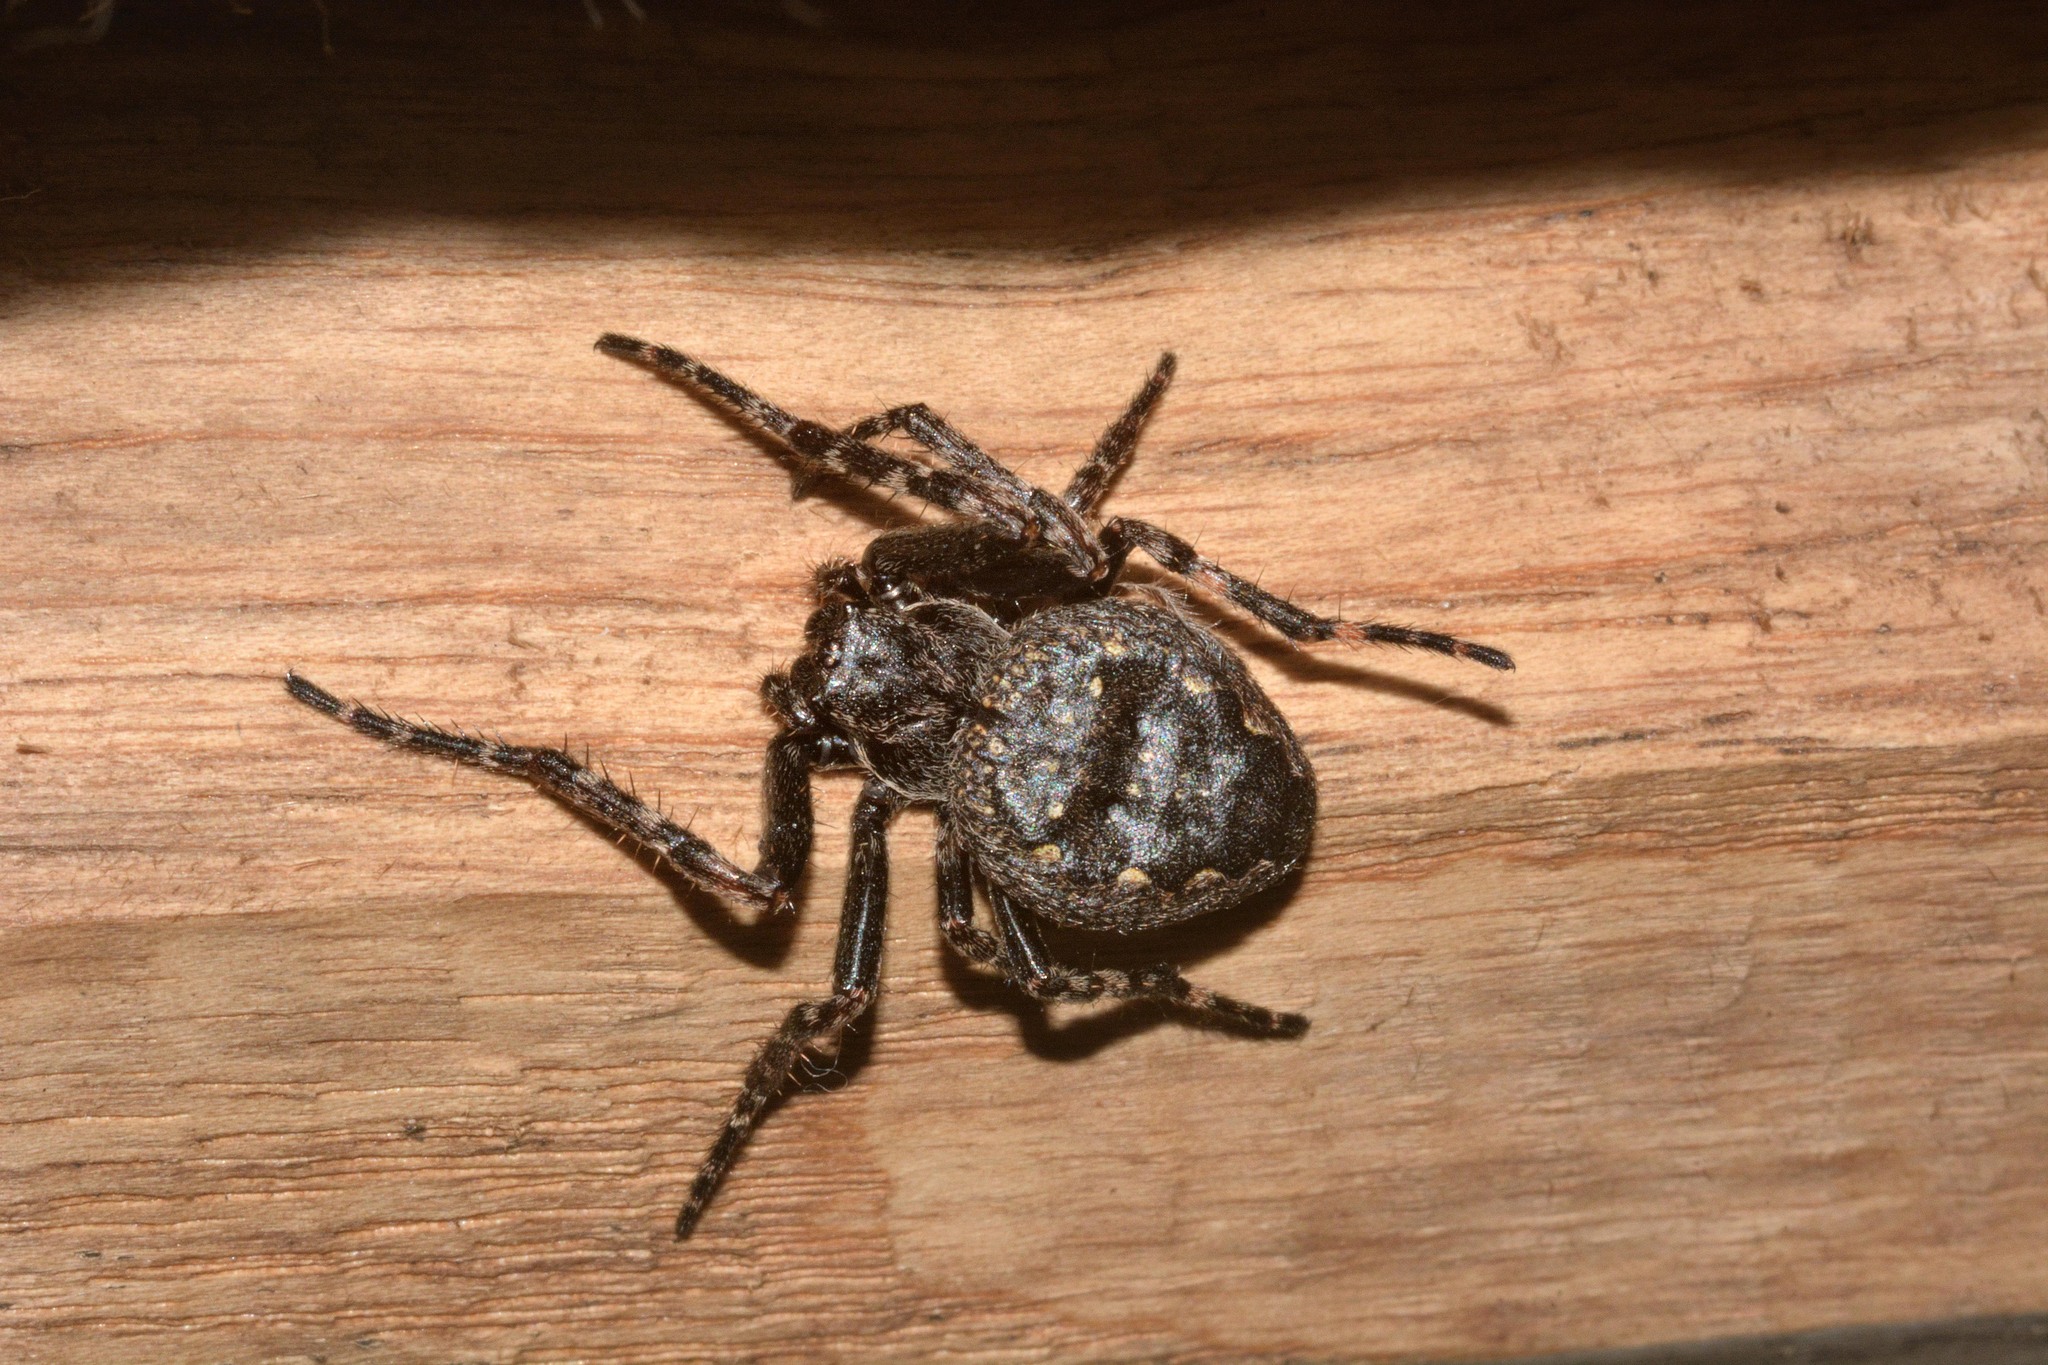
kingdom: Animalia
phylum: Arthropoda
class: Arachnida
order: Araneae
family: Araneidae
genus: Nuctenea
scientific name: Nuctenea umbratica
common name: Toad spider
